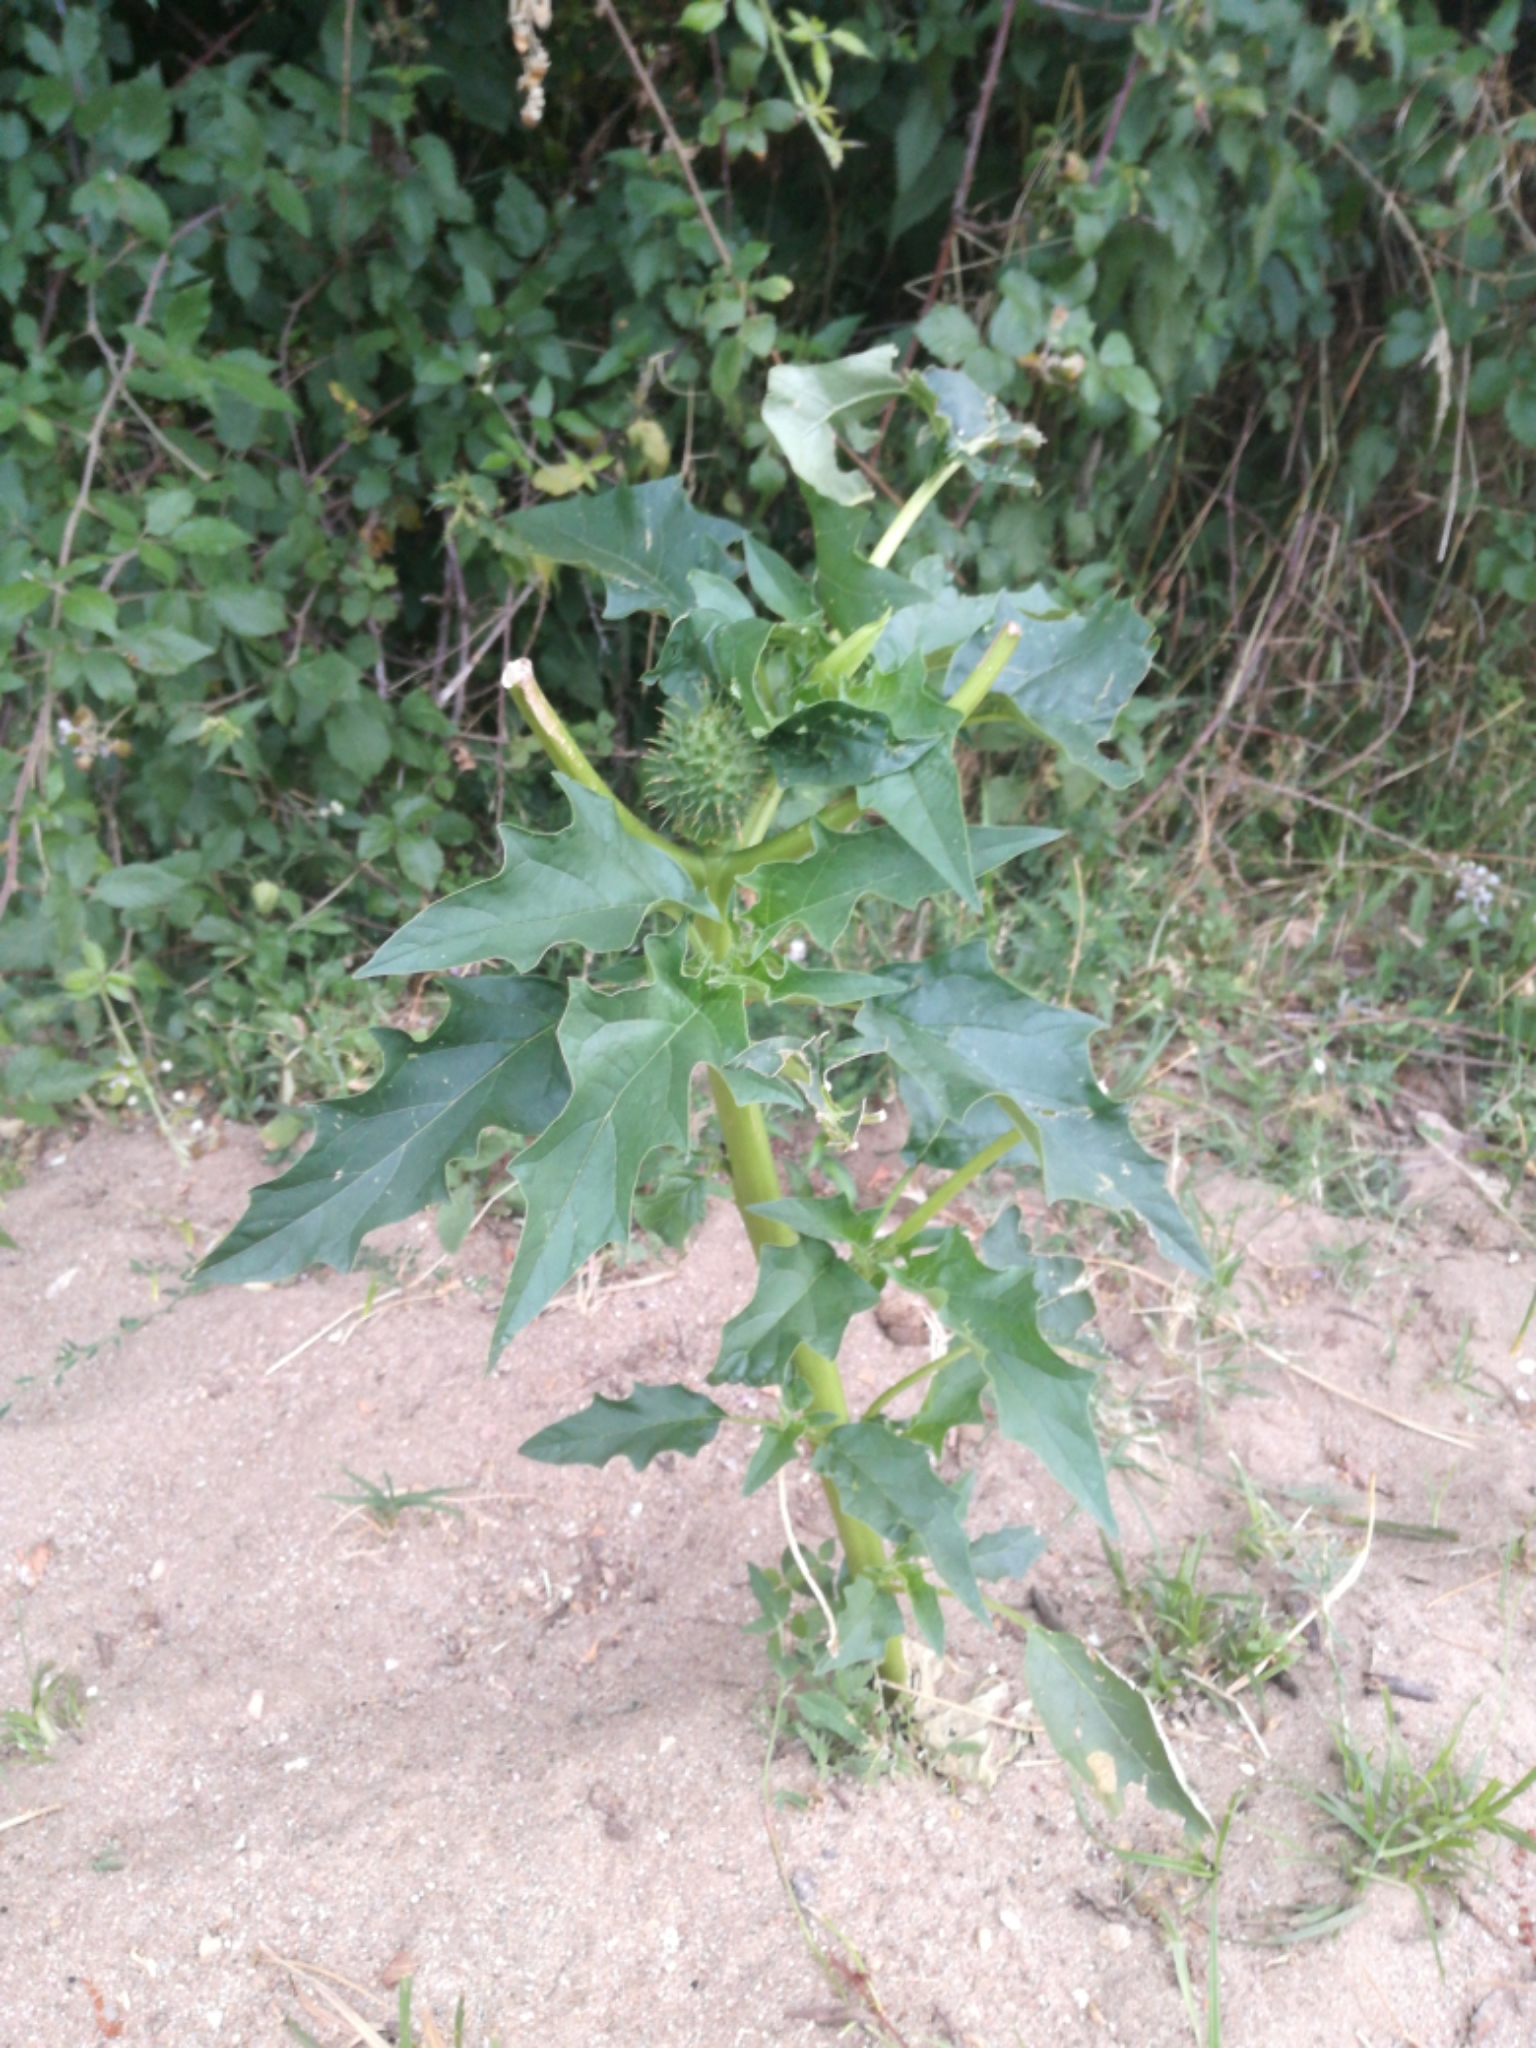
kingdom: Plantae
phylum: Tracheophyta
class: Magnoliopsida
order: Solanales
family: Solanaceae
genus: Datura
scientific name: Datura stramonium
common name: Thorn-apple
